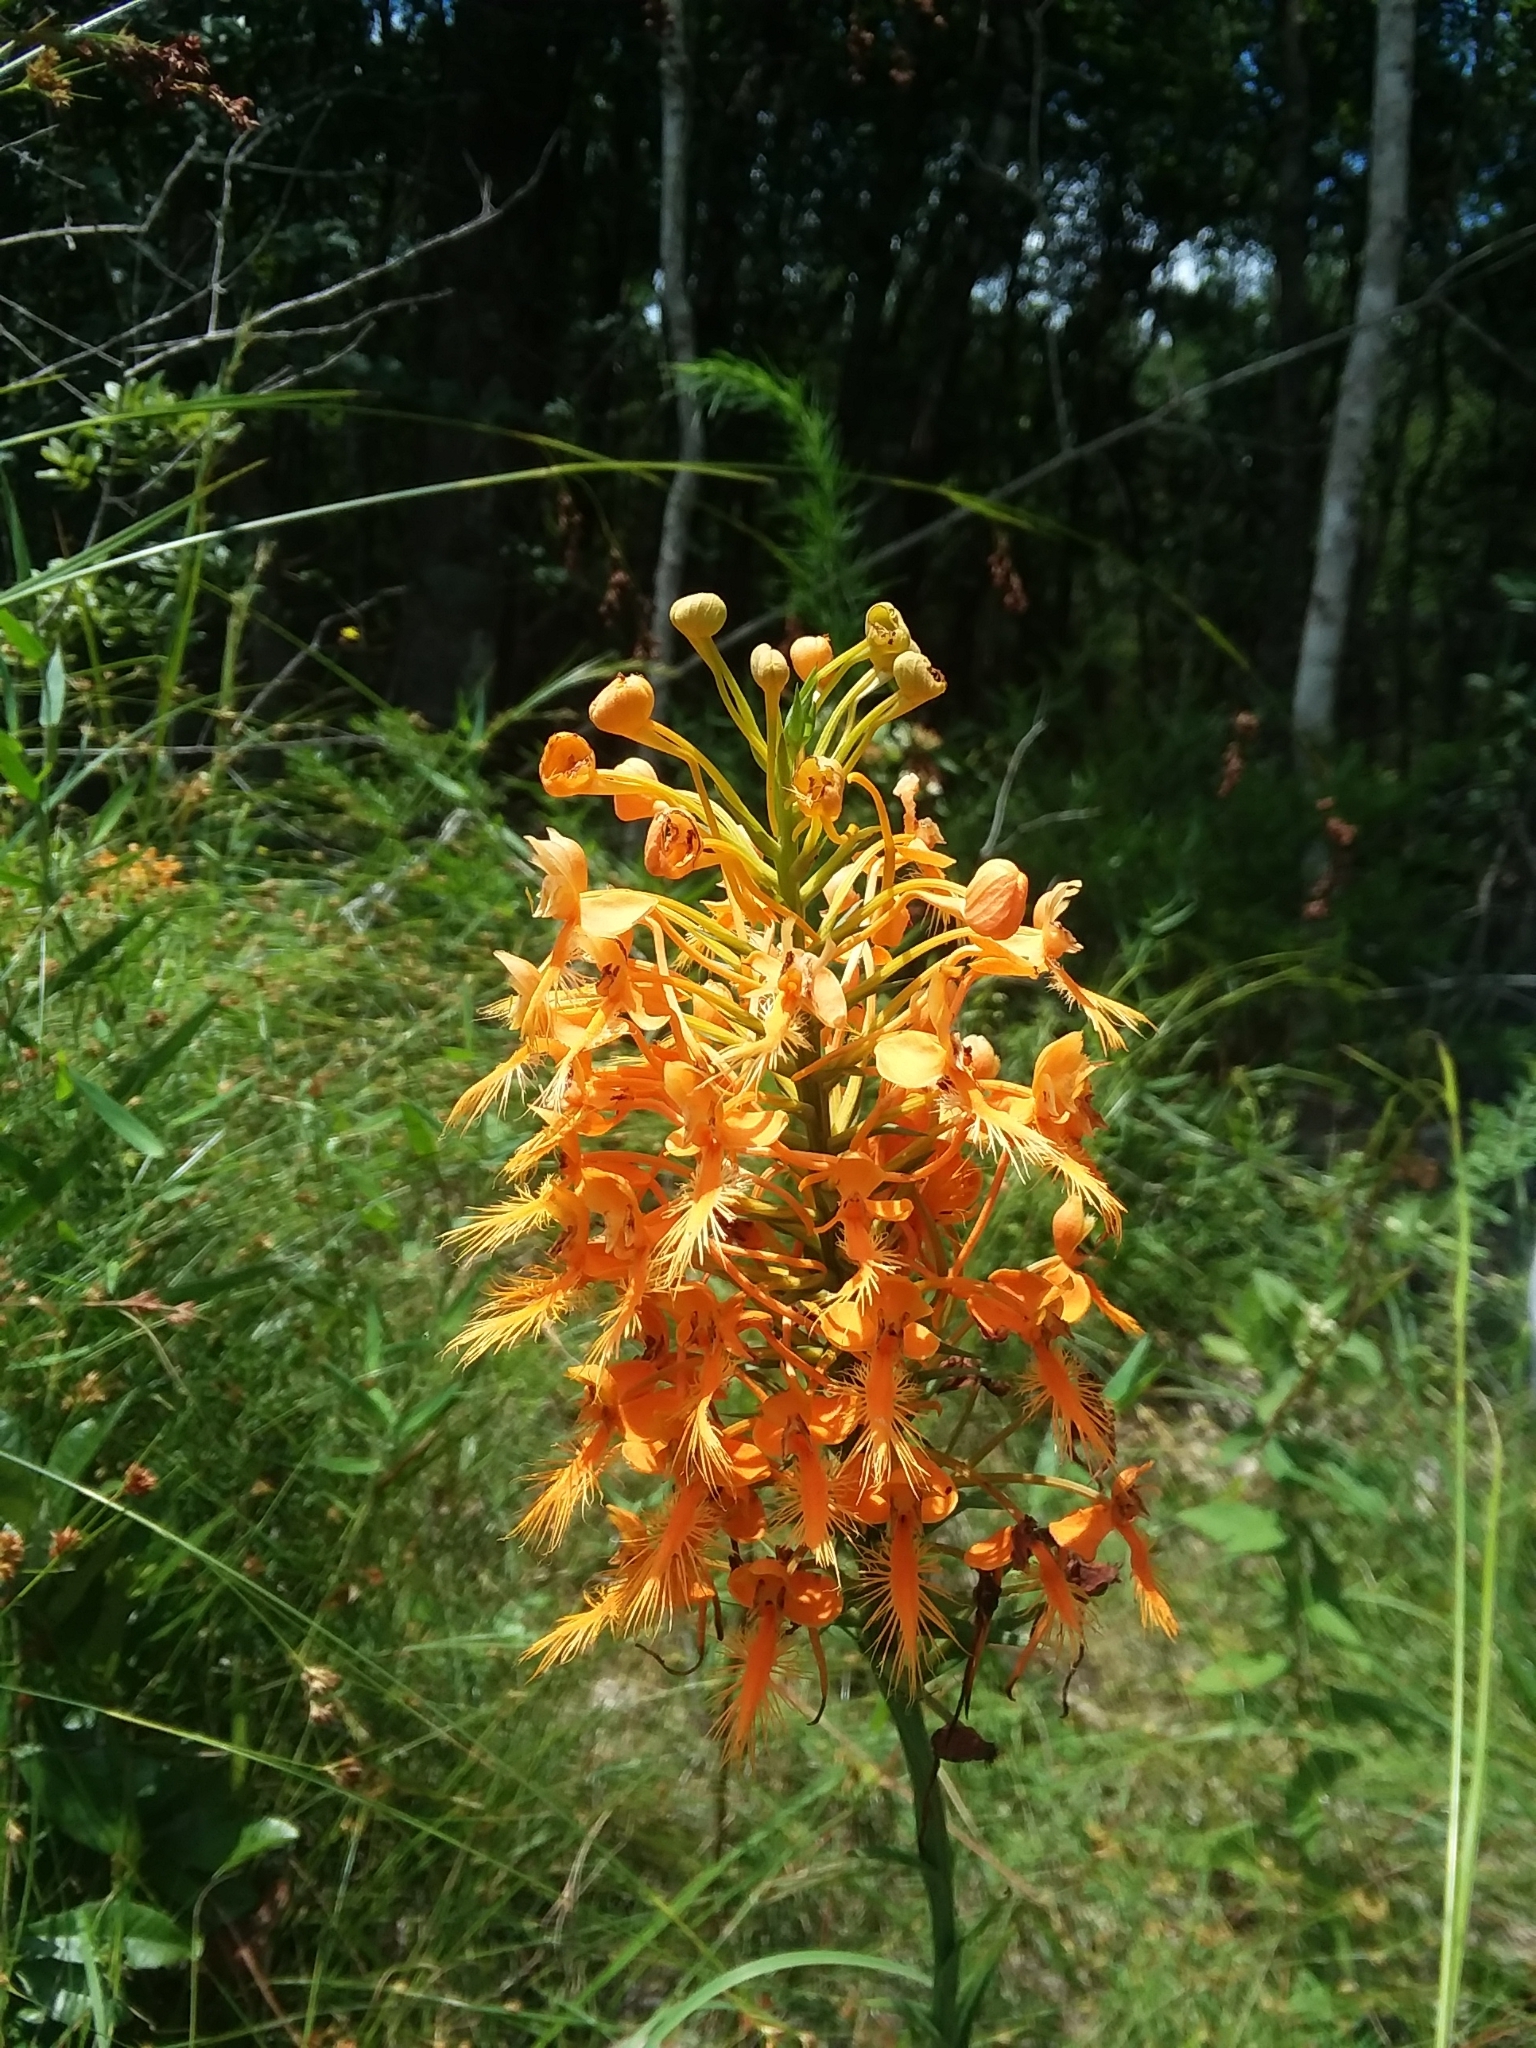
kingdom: Plantae
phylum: Tracheophyta
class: Liliopsida
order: Asparagales
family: Orchidaceae
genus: Platanthera
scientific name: Platanthera ciliaris
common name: Yellow fringed orchid
